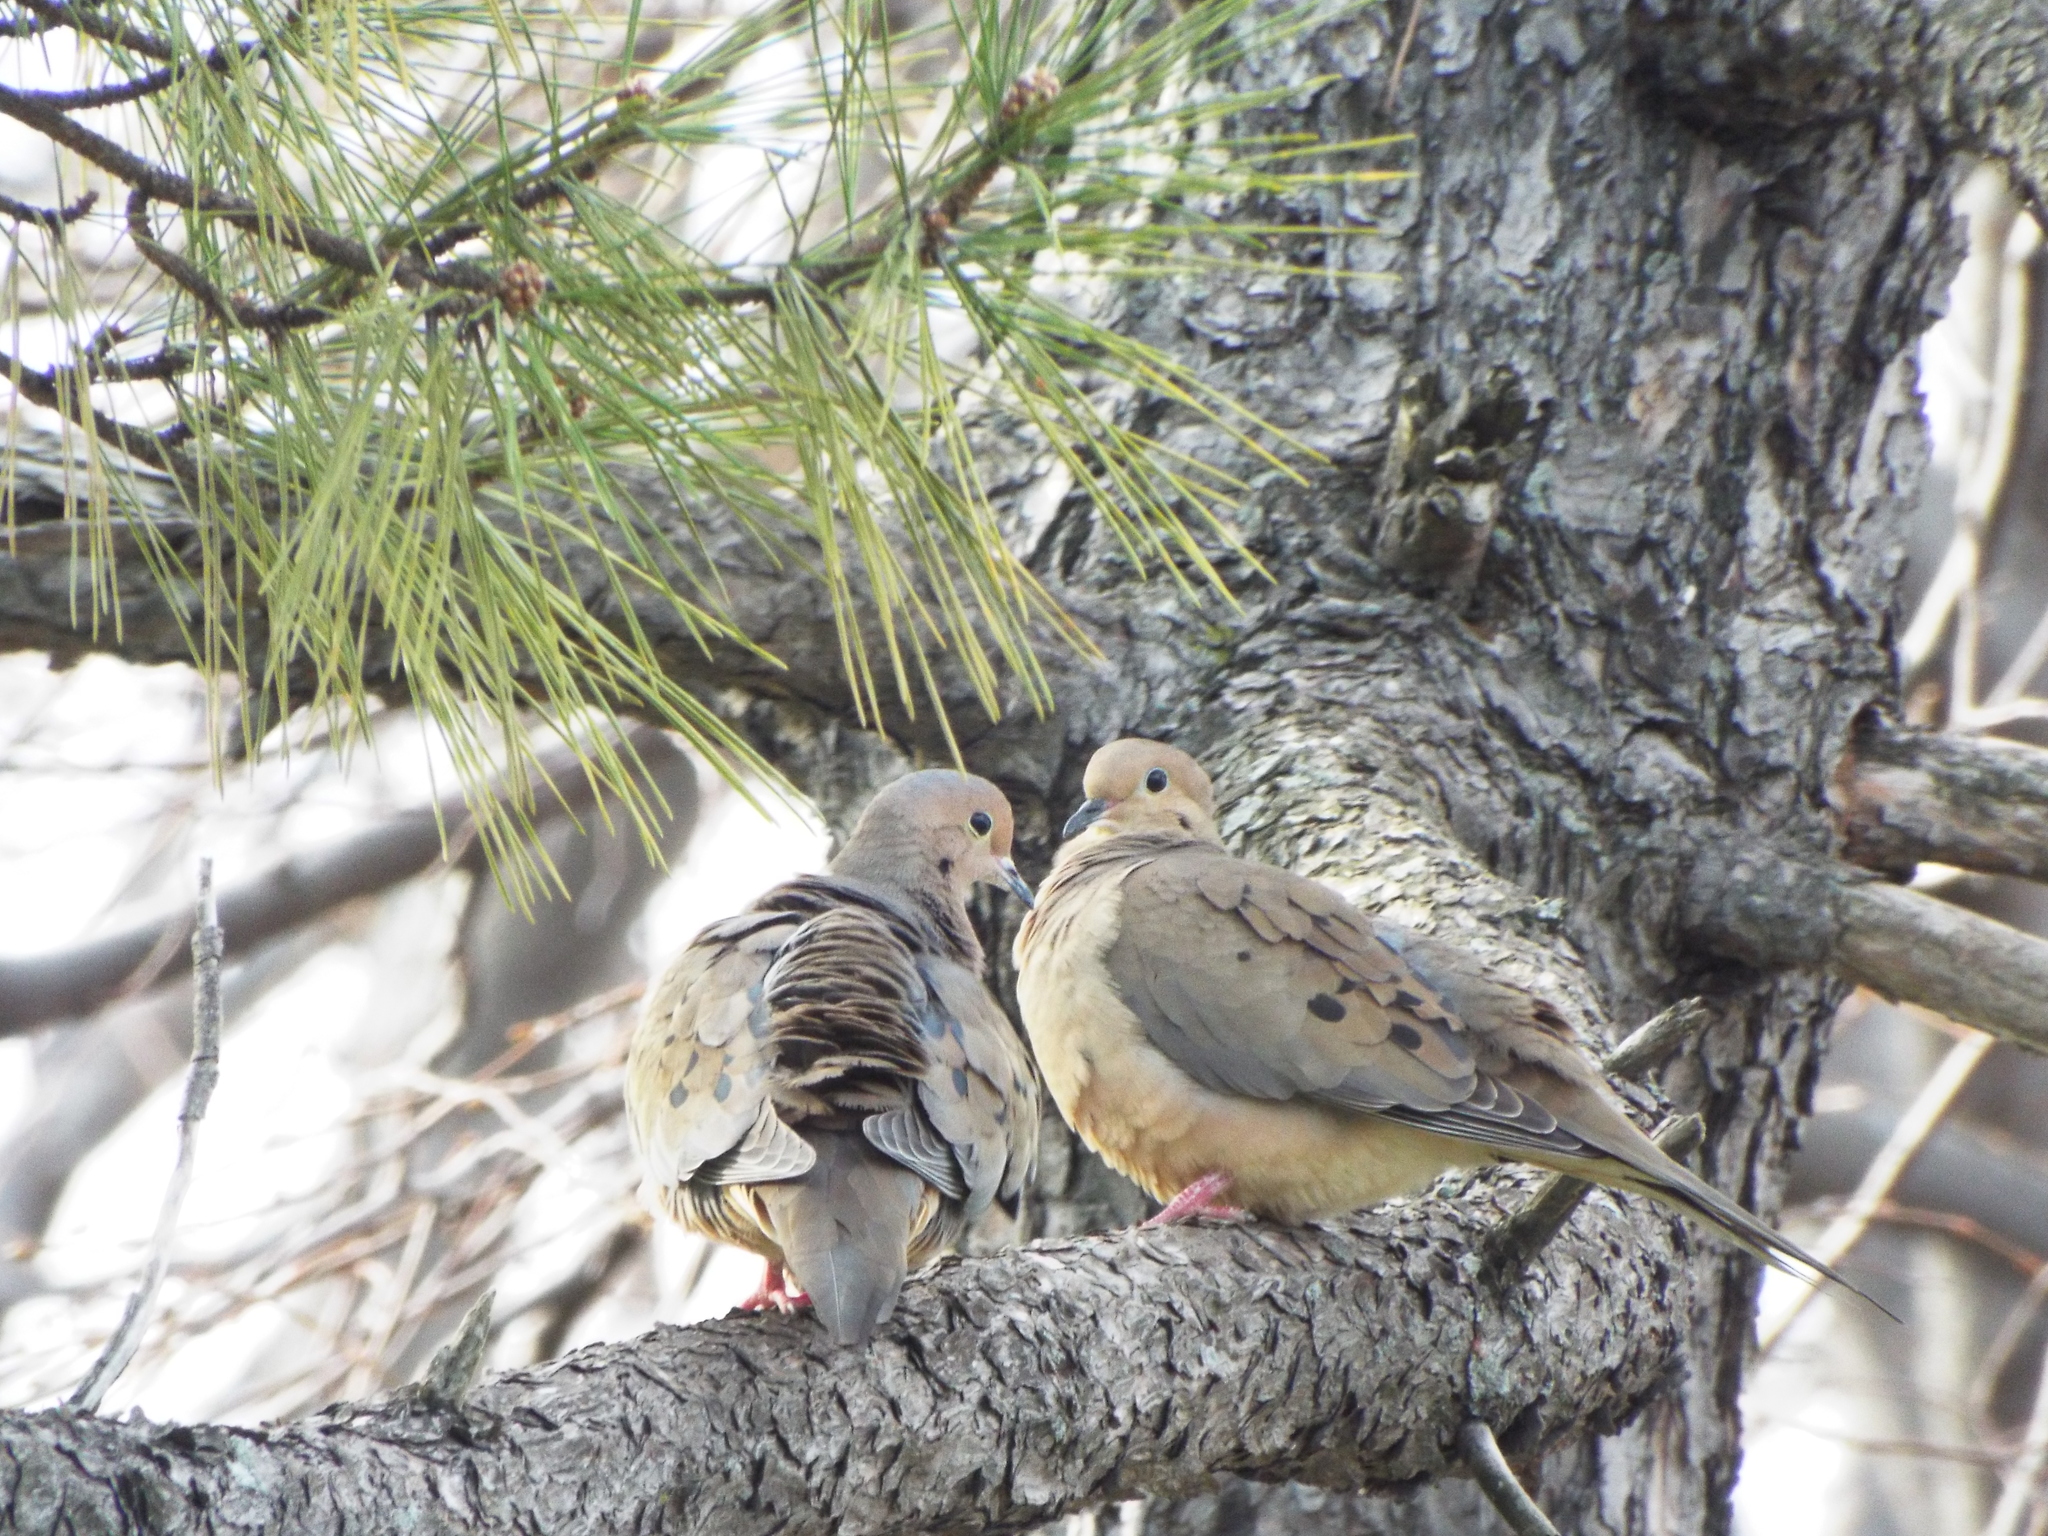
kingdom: Animalia
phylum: Chordata
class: Aves
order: Columbiformes
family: Columbidae
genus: Zenaida
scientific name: Zenaida macroura
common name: Mourning dove
